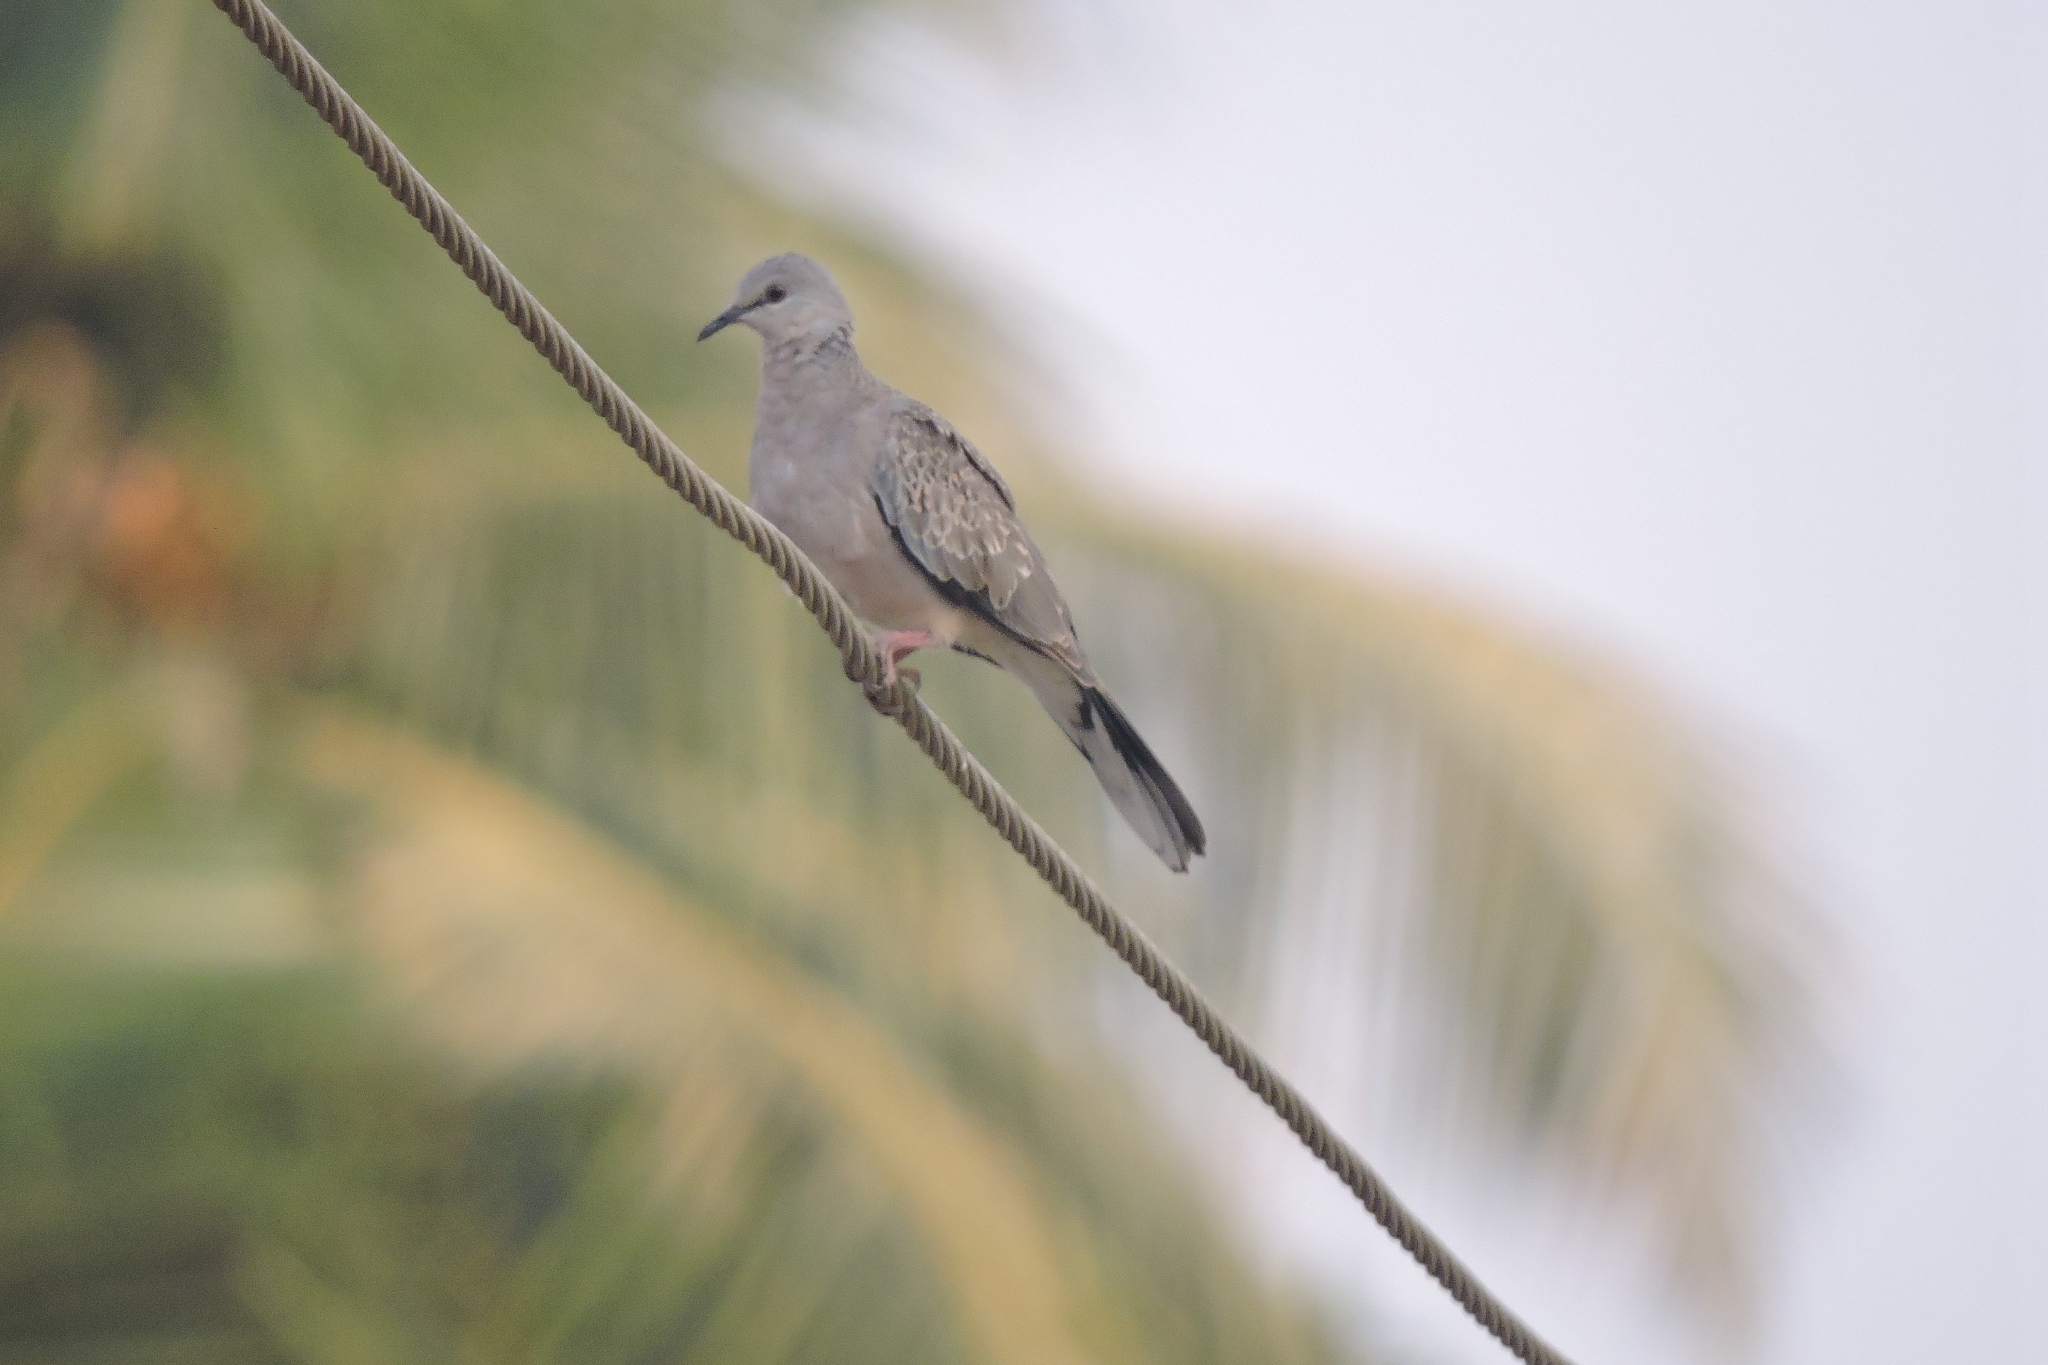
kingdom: Animalia
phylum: Chordata
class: Aves
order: Columbiformes
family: Columbidae
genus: Spilopelia
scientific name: Spilopelia chinensis
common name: Spotted dove
